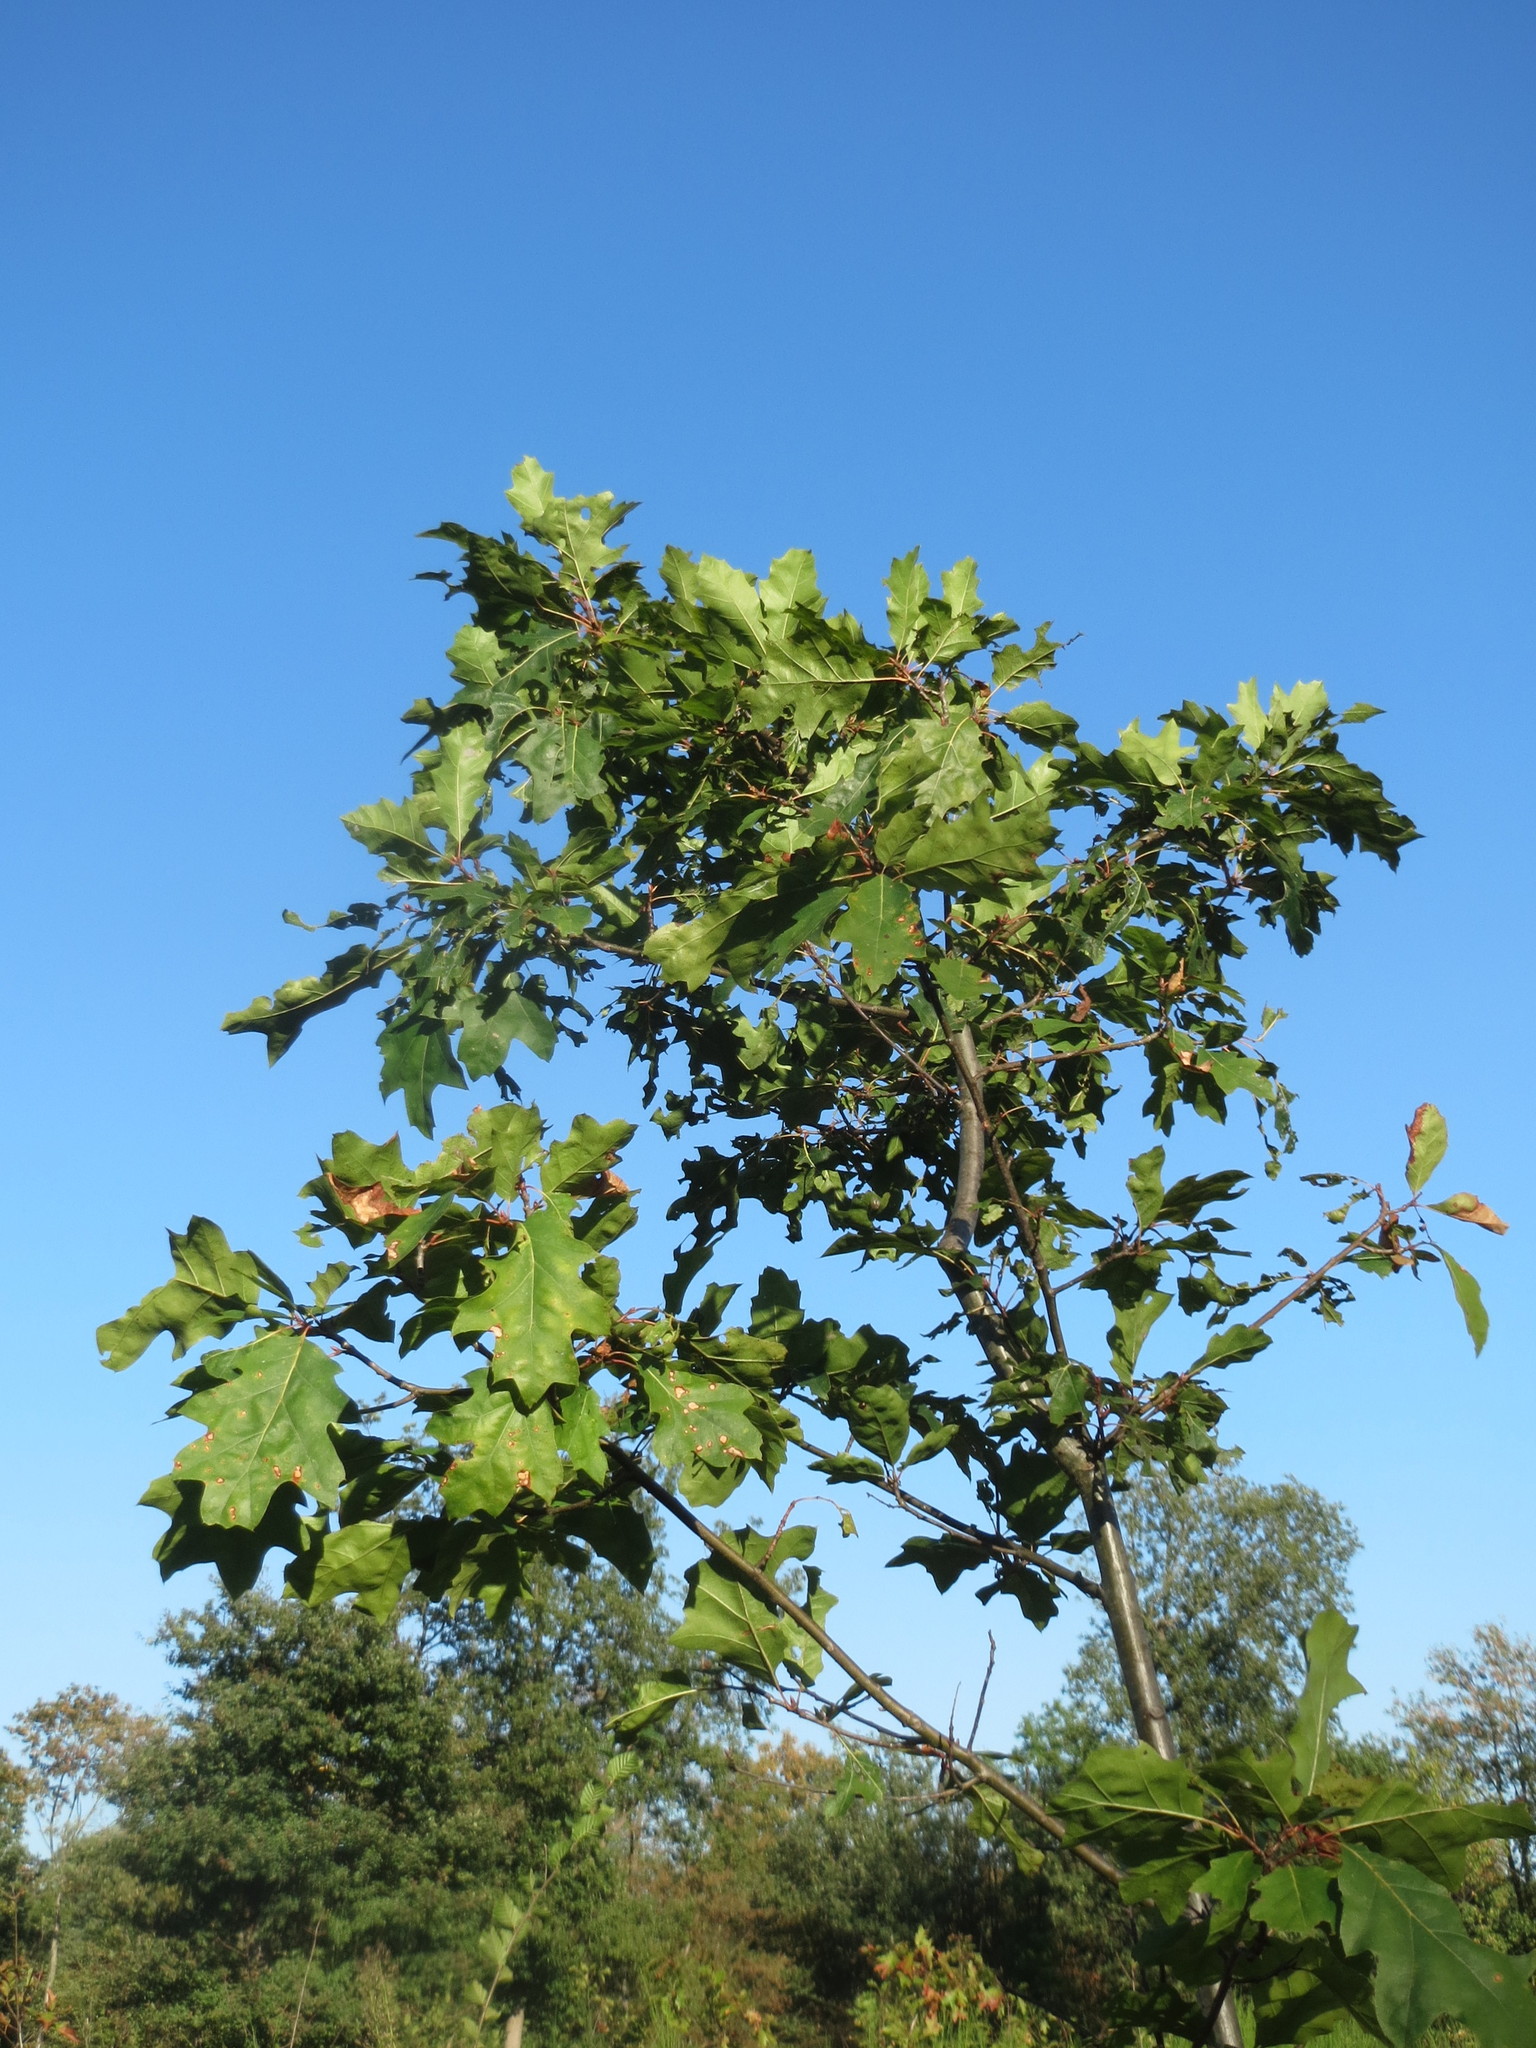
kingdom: Plantae
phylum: Tracheophyta
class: Magnoliopsida
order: Fagales
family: Fagaceae
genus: Quercus
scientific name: Quercus rubra
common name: Red oak
